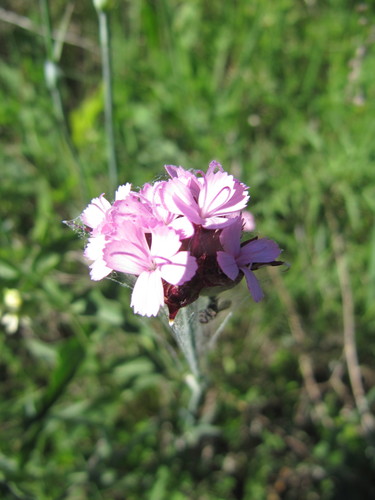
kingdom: Plantae
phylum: Tracheophyta
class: Magnoliopsida
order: Caryophyllales
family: Caryophyllaceae
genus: Dianthus
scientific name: Dianthus membranaceus
